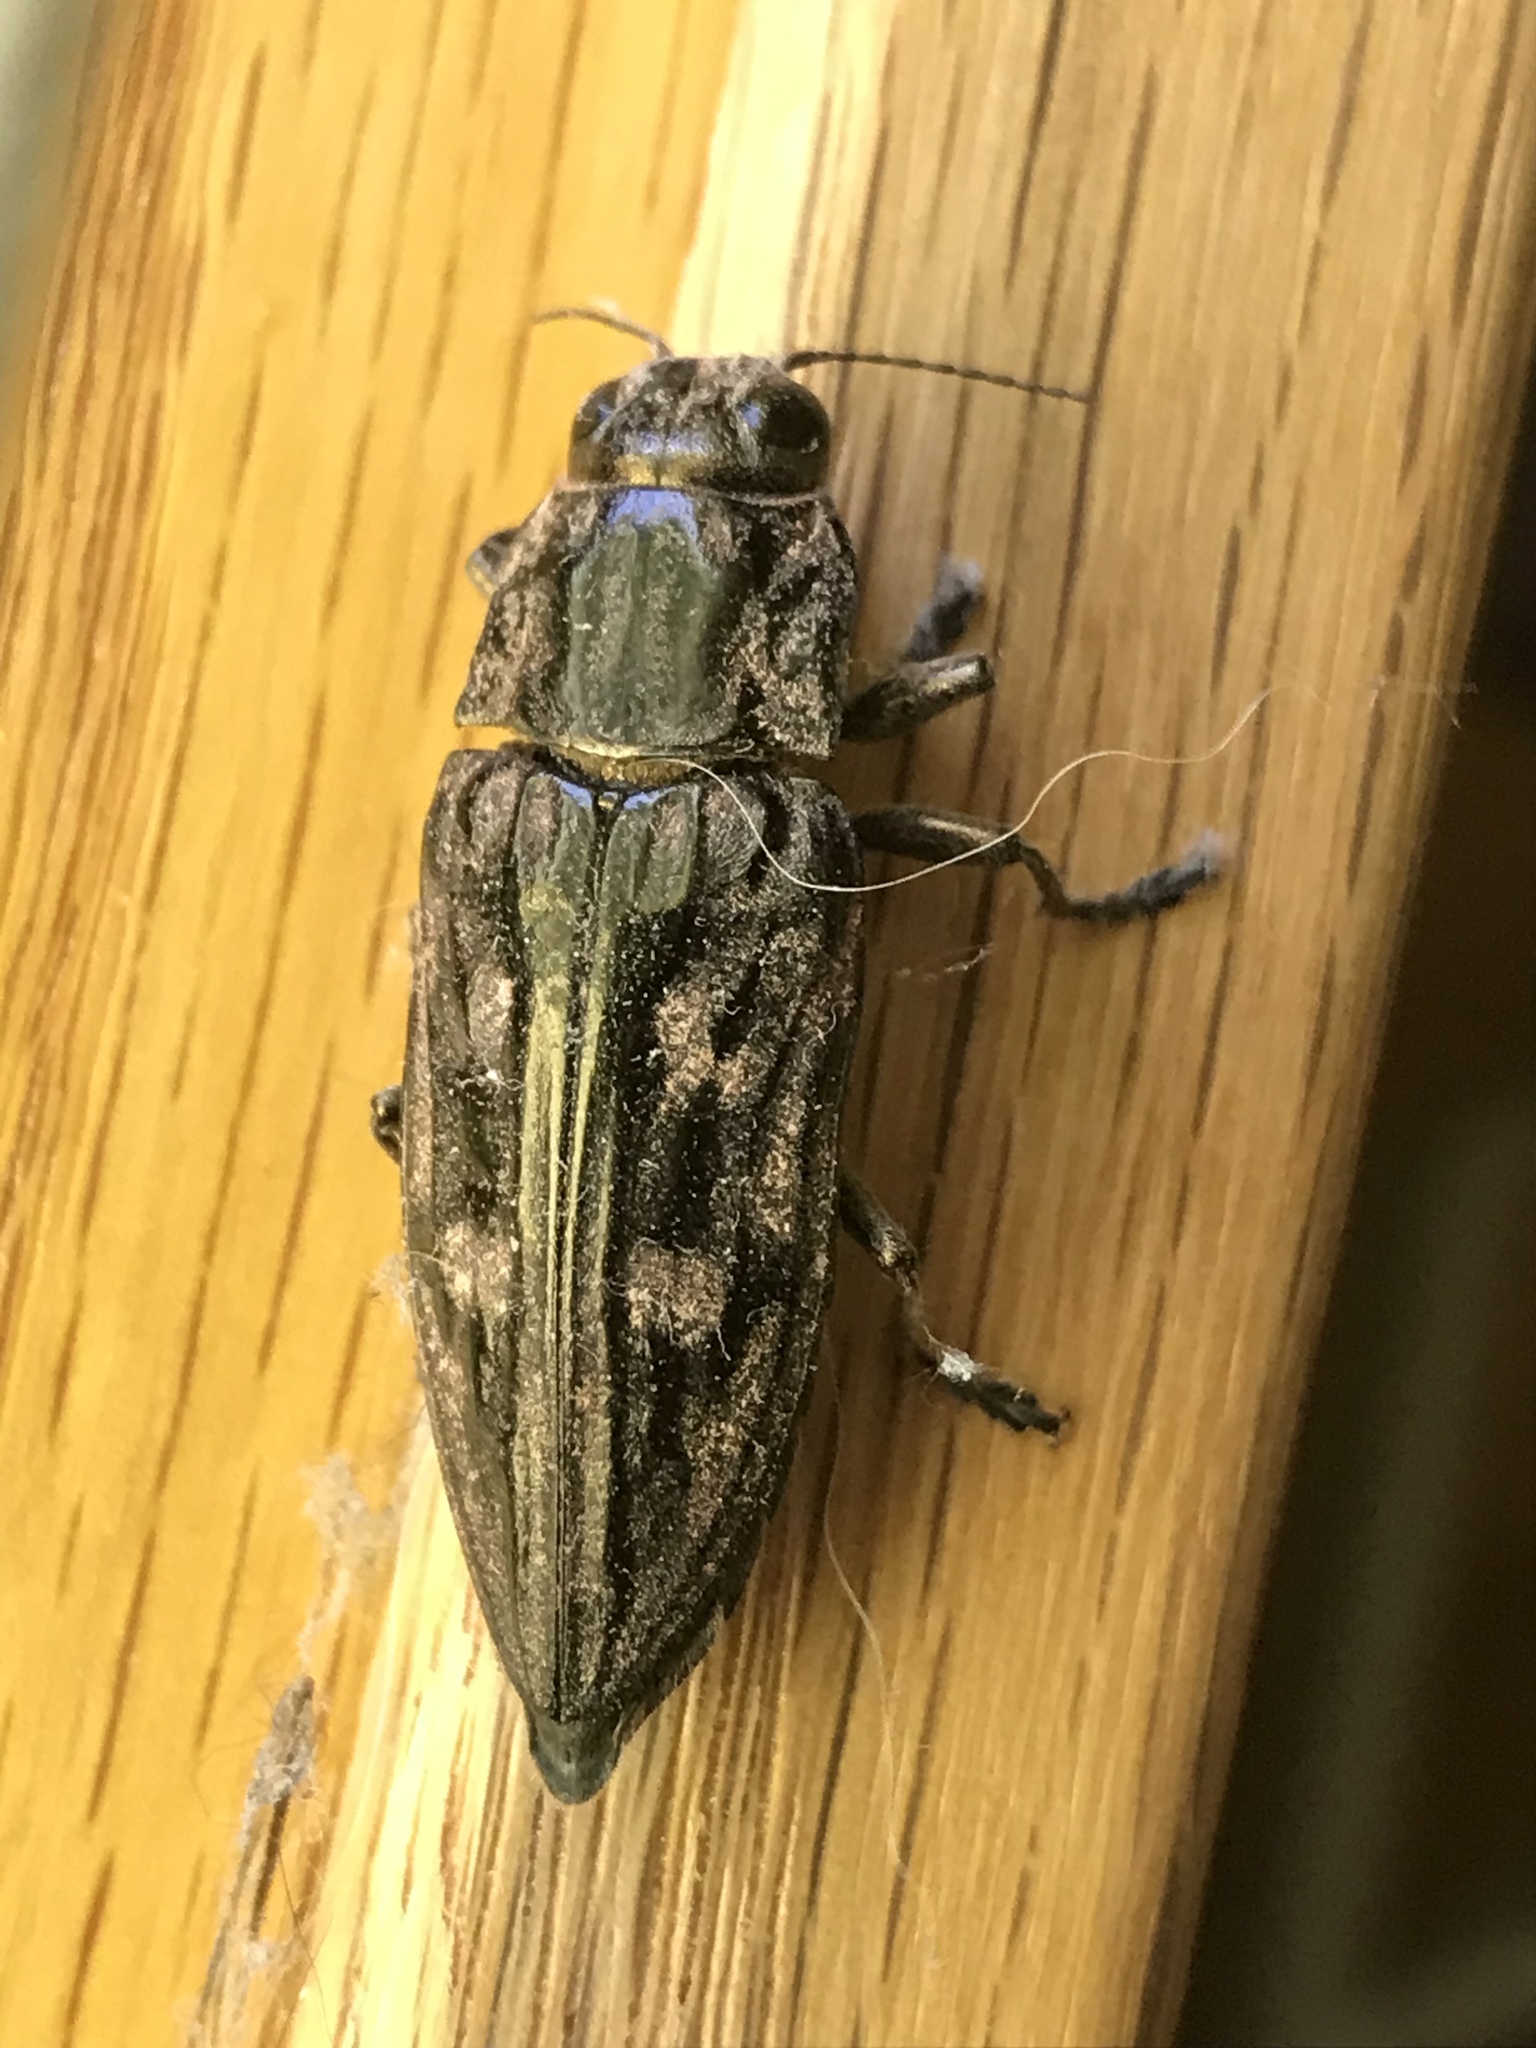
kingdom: Animalia
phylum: Arthropoda
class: Insecta
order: Coleoptera
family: Buprestidae
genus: Chalcophora
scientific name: Chalcophora virginiensis
